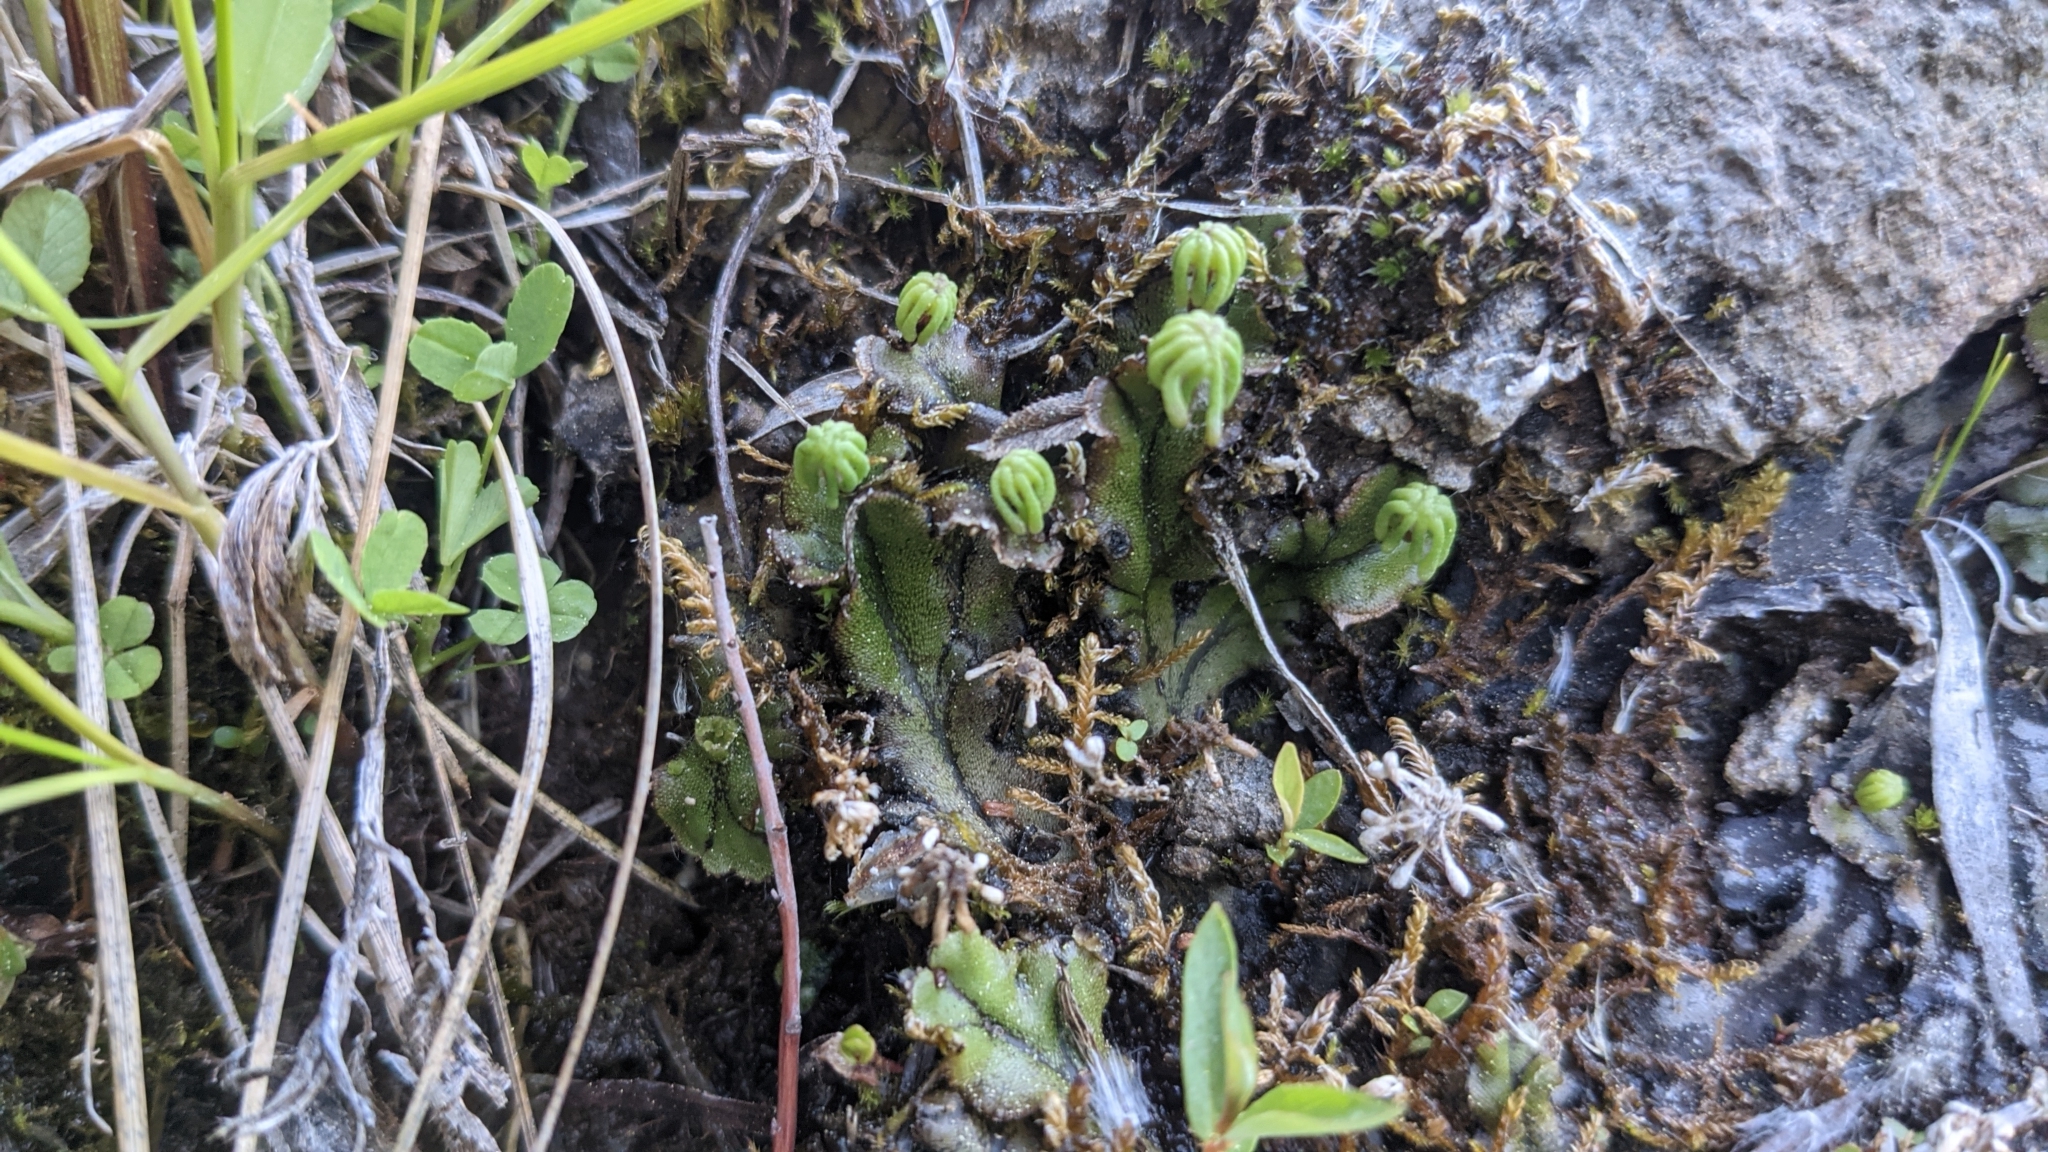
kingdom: Plantae
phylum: Marchantiophyta
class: Marchantiopsida
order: Marchantiales
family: Marchantiaceae
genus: Marchantia
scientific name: Marchantia polymorpha
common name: Common liverwort
